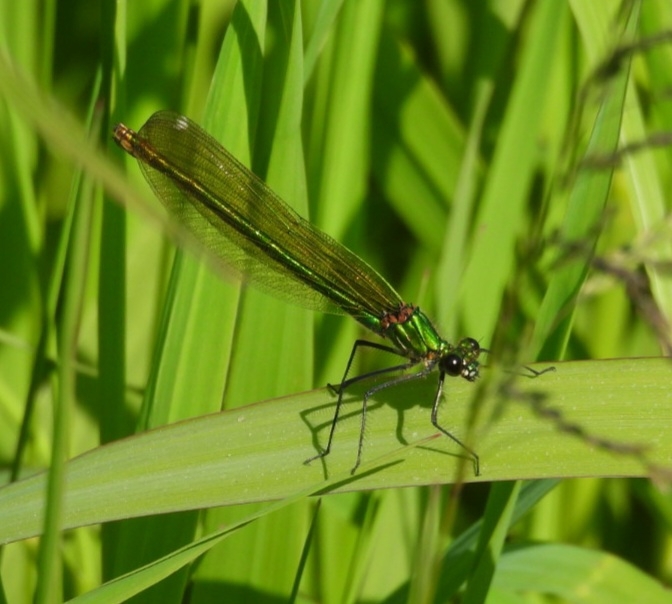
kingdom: Animalia
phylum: Arthropoda
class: Insecta
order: Odonata
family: Calopterygidae
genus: Calopteryx
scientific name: Calopteryx splendens
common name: Banded demoiselle
